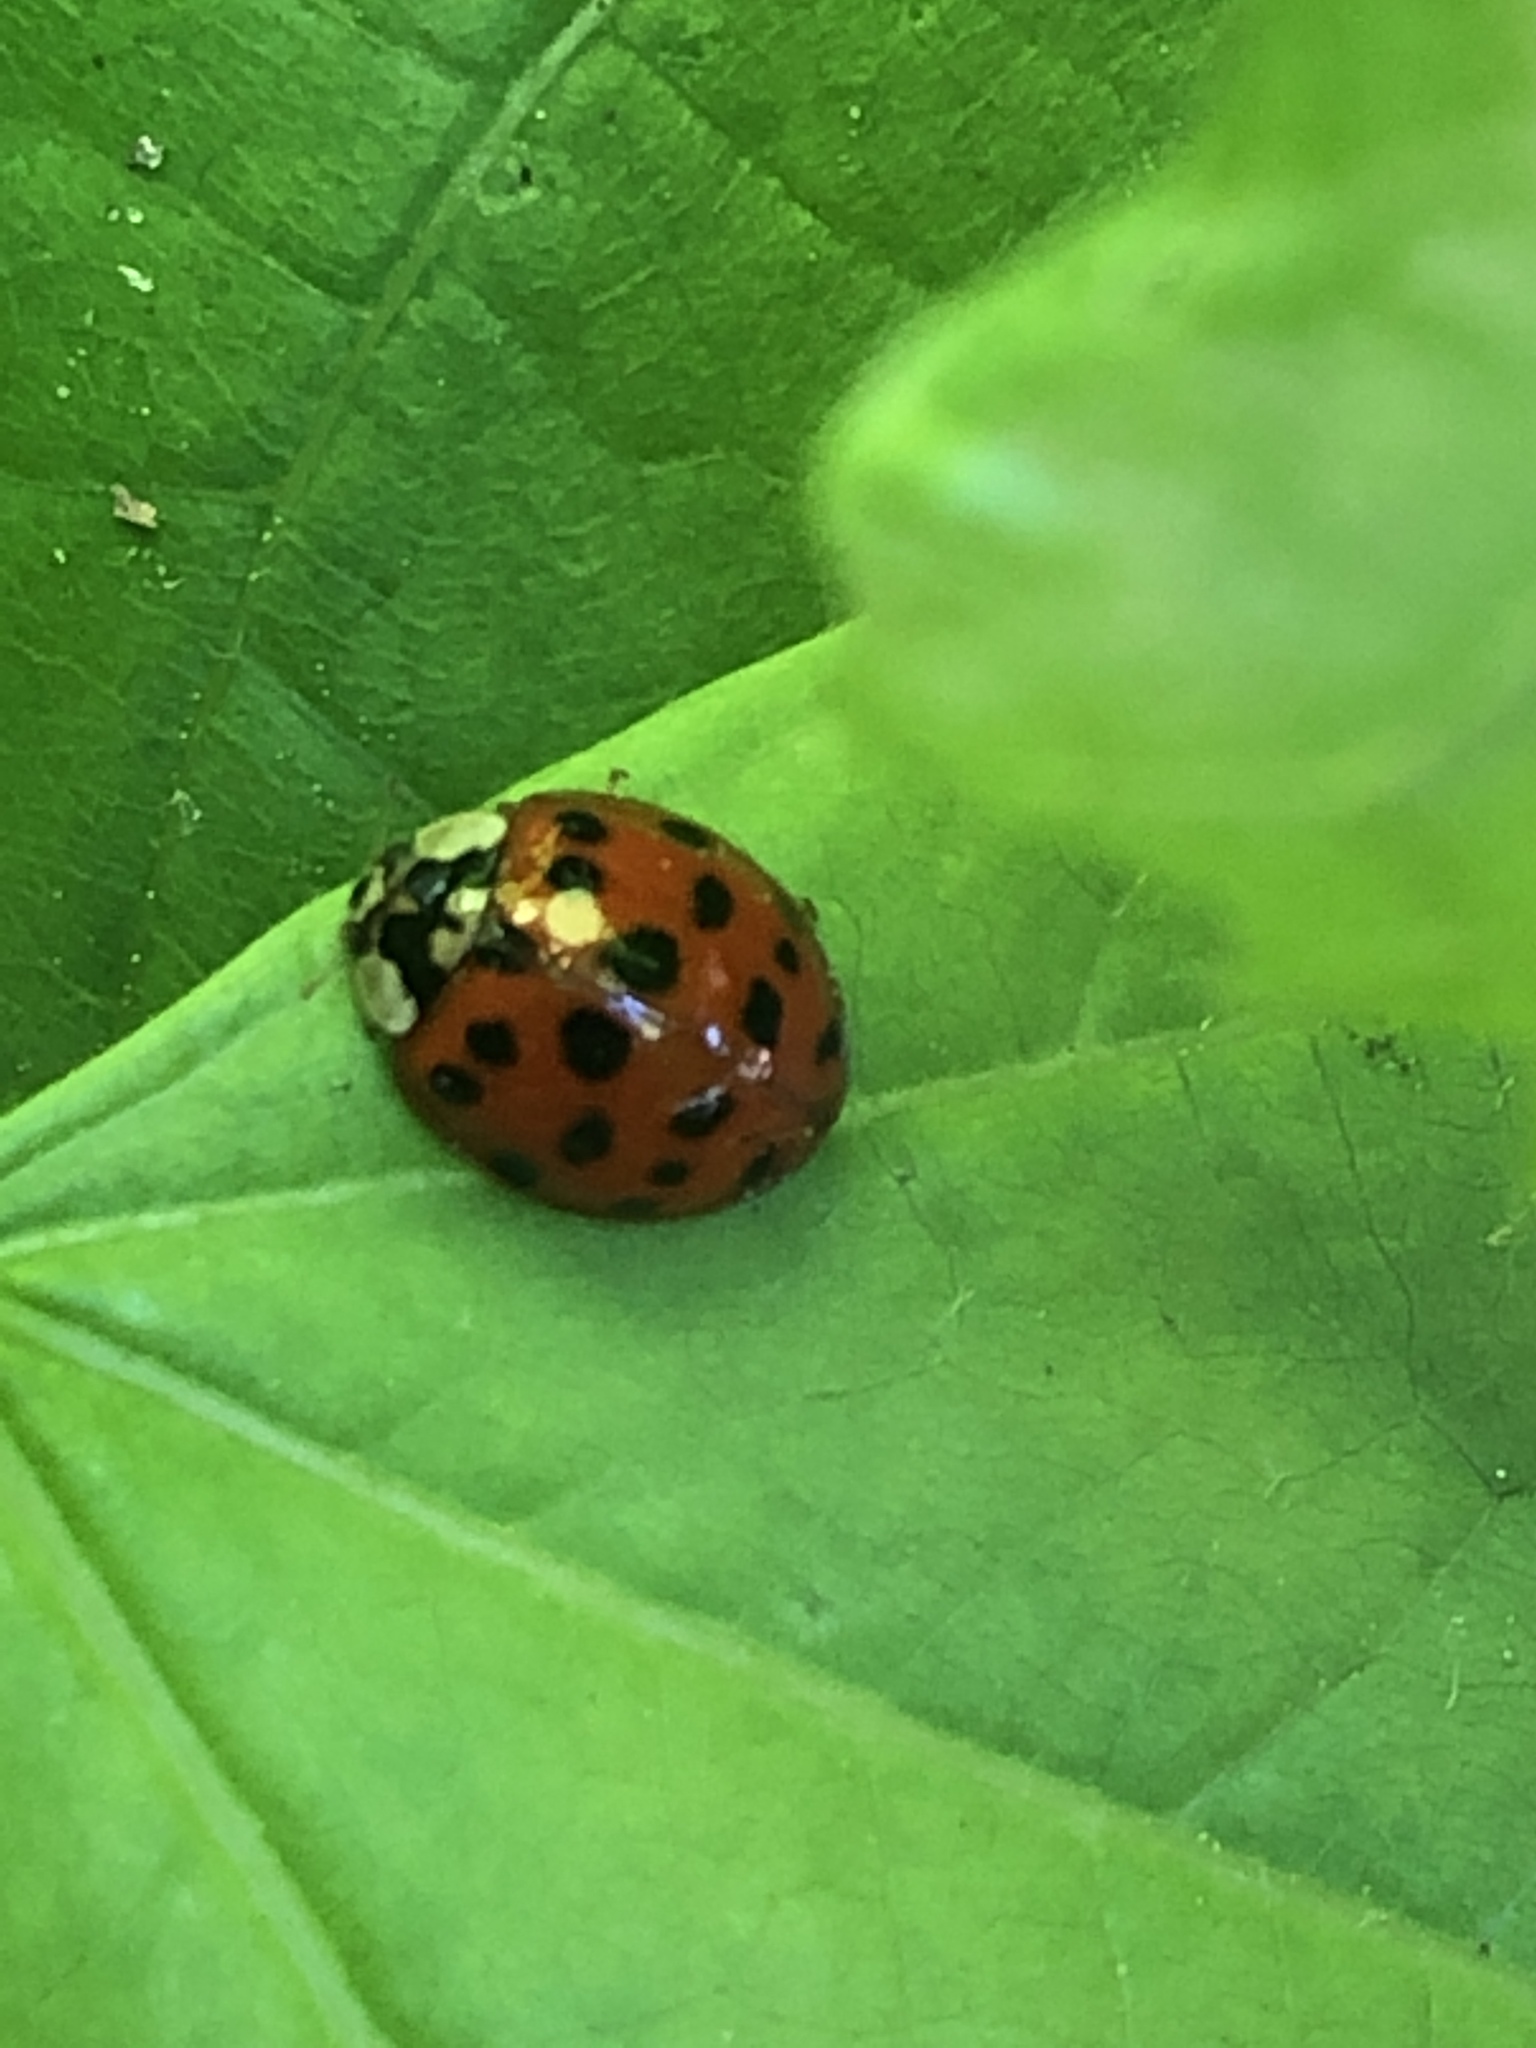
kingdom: Animalia
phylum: Arthropoda
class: Insecta
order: Coleoptera
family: Coccinellidae
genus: Harmonia
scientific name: Harmonia axyridis
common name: Harlequin ladybird
